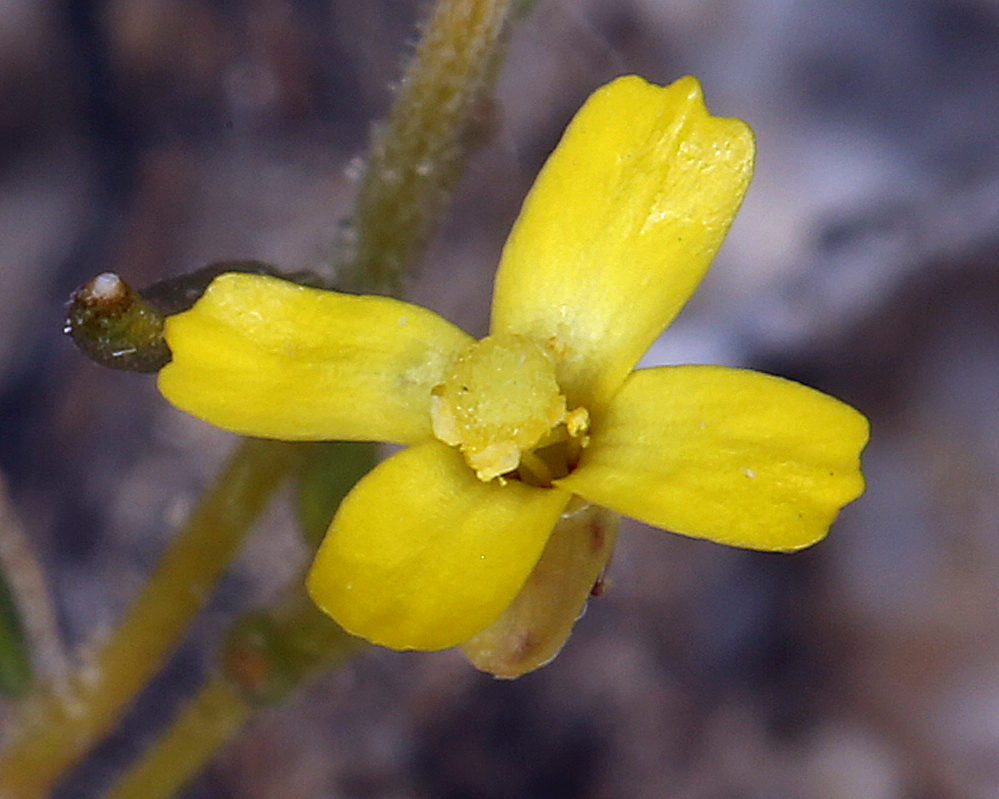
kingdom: Plantae
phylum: Tracheophyta
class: Magnoliopsida
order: Myrtales
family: Onagraceae
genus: Camissonia
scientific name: Camissonia parvula
